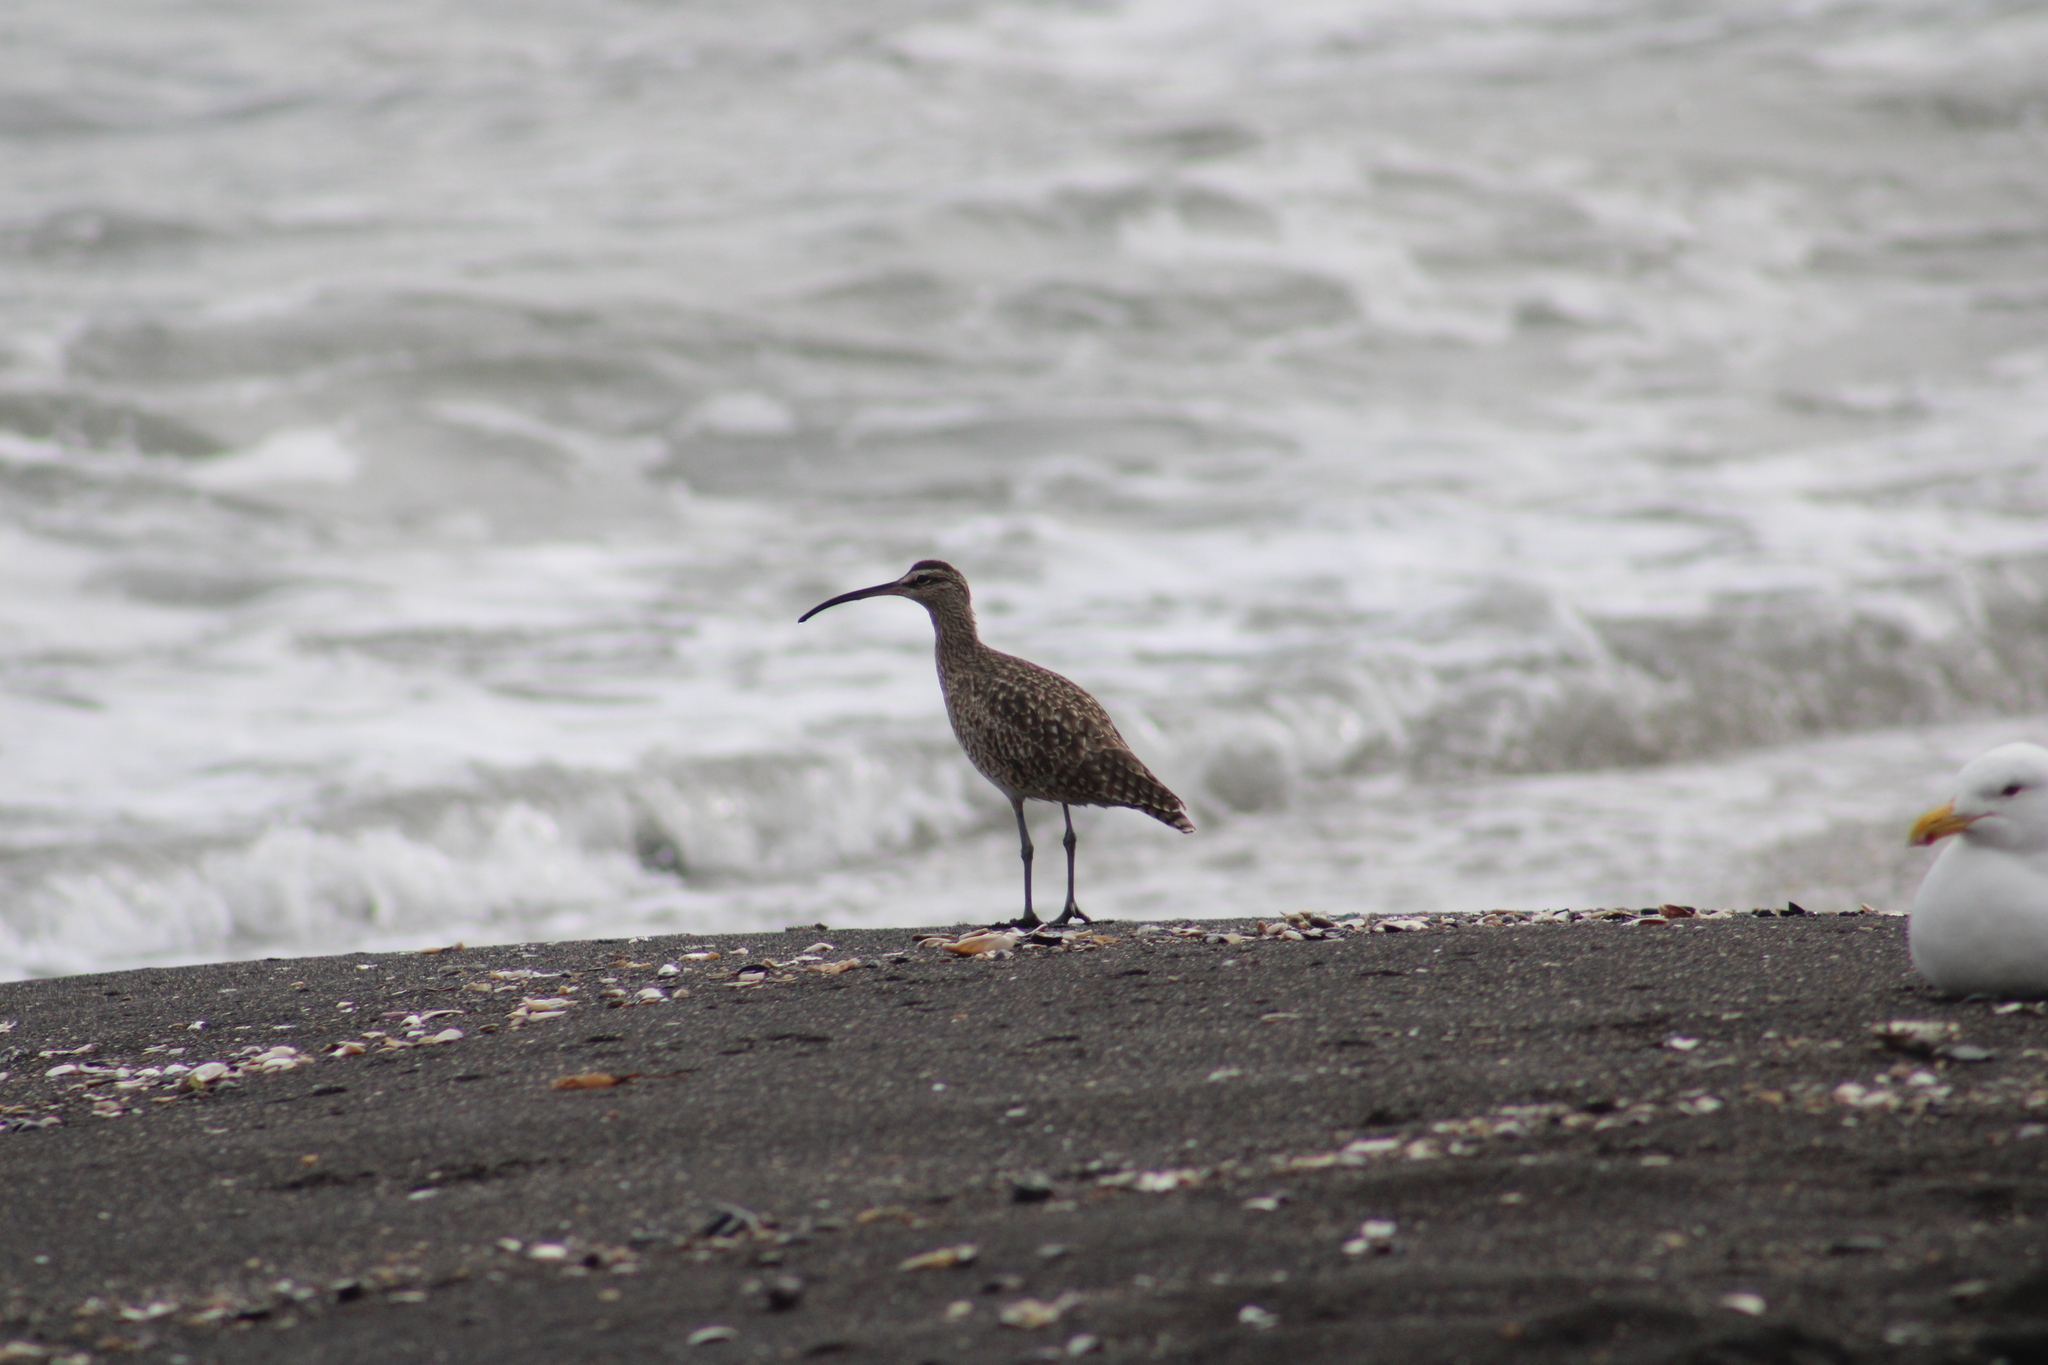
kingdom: Animalia
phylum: Chordata
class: Aves
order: Charadriiformes
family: Scolopacidae
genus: Numenius
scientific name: Numenius phaeopus
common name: Whimbrel
